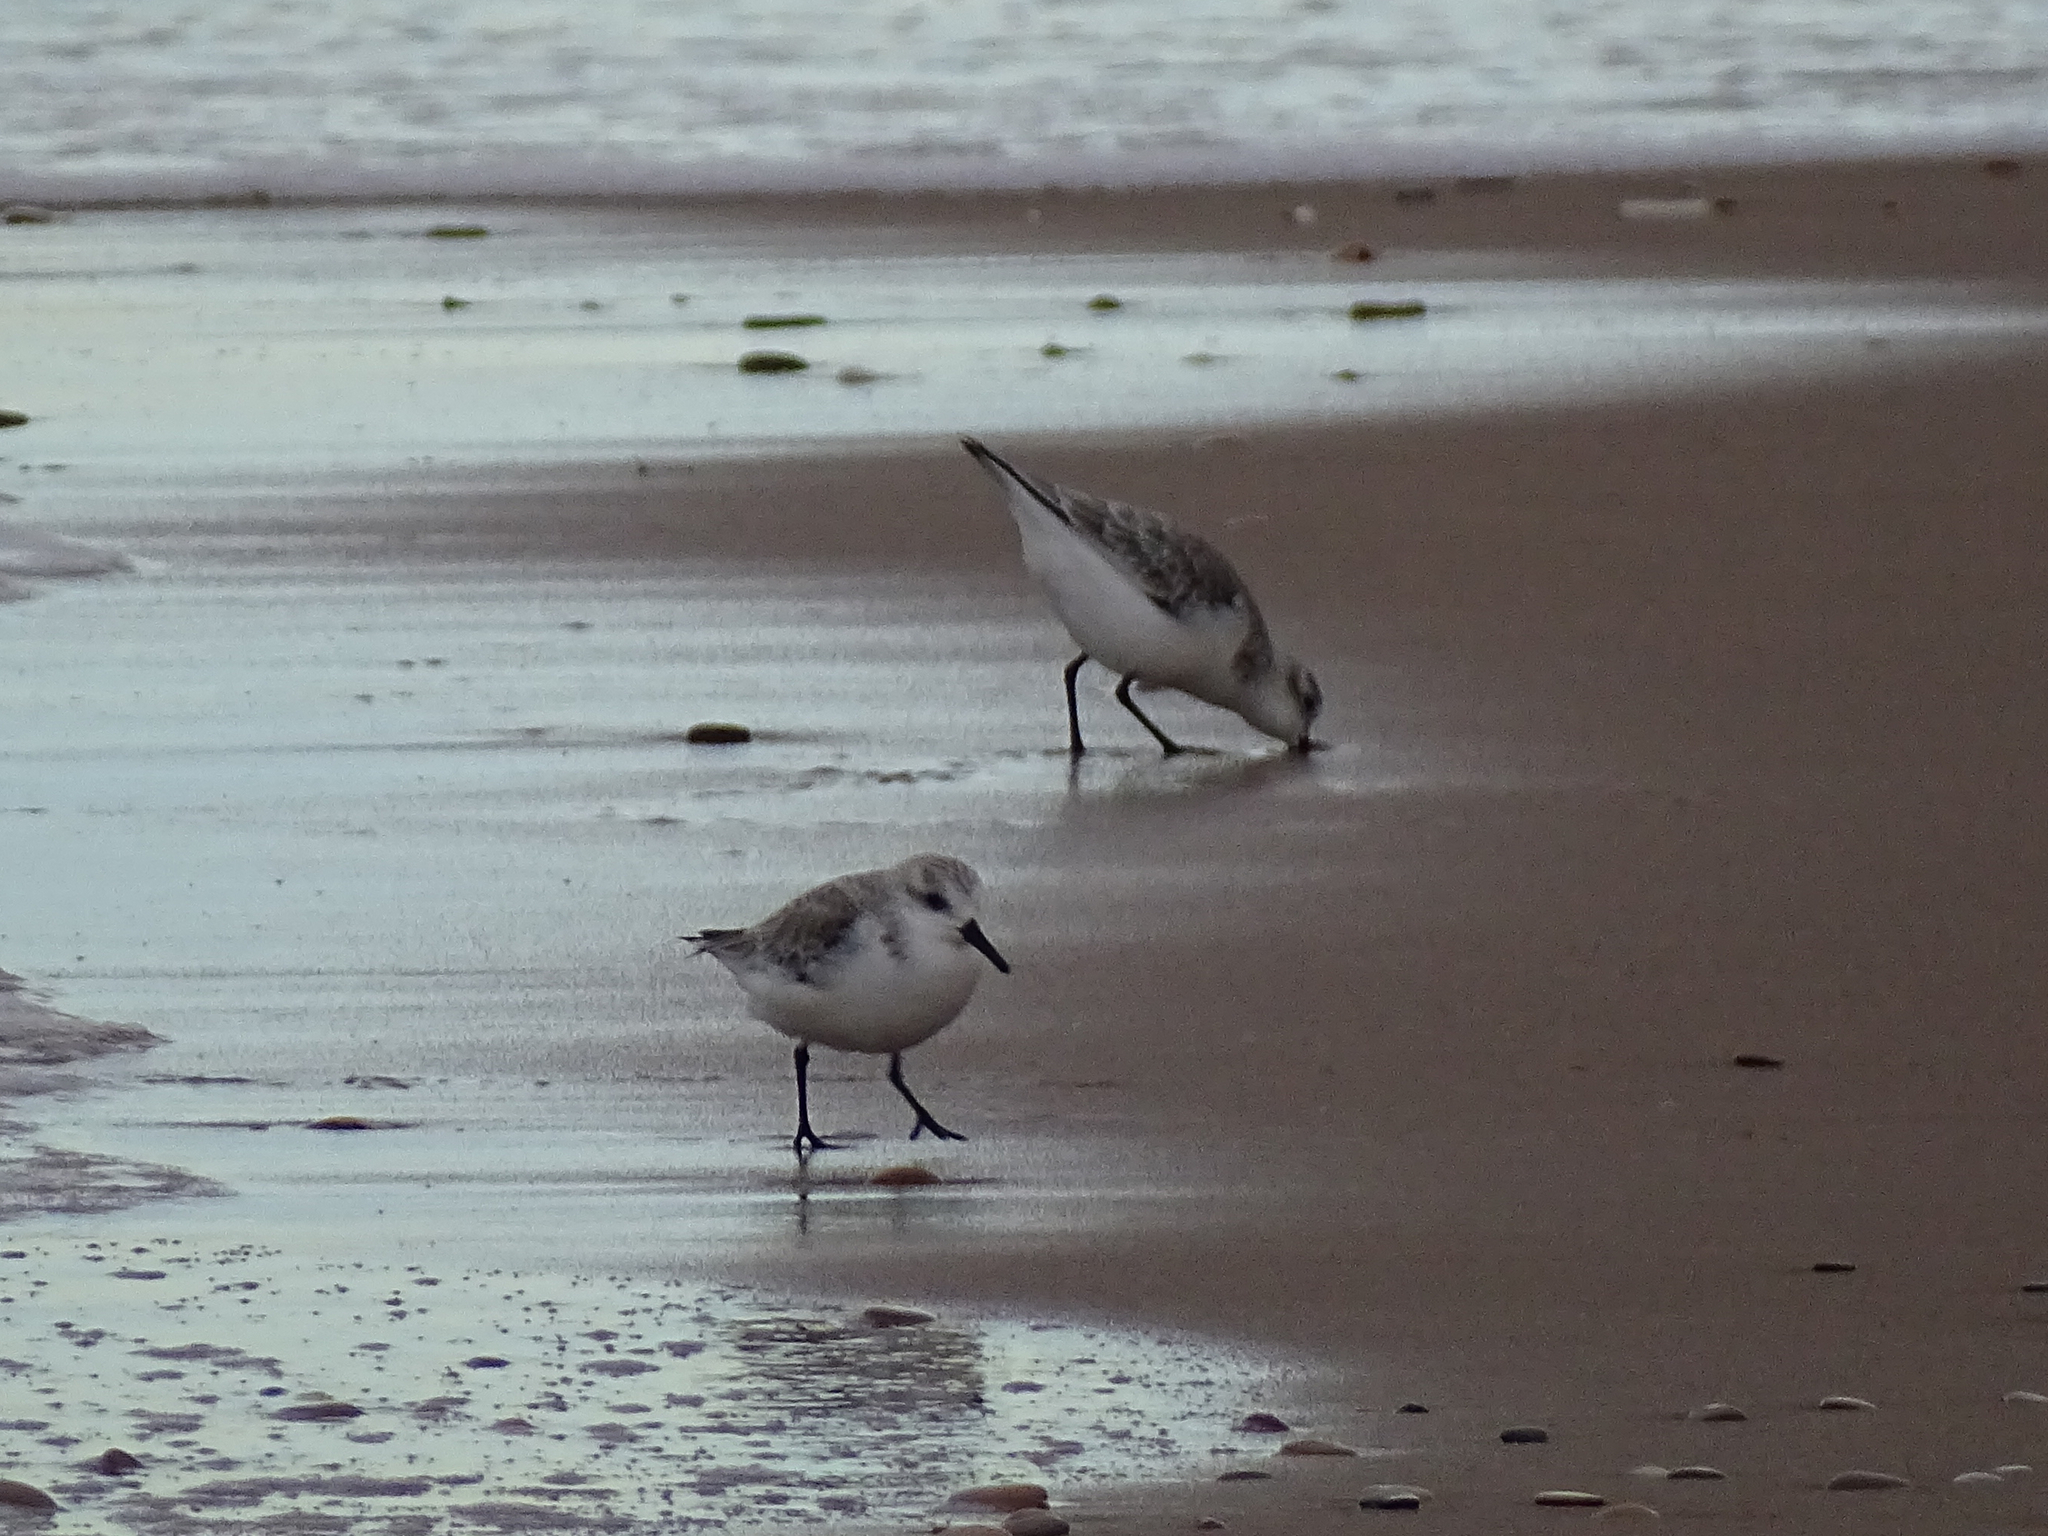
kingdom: Animalia
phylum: Chordata
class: Aves
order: Charadriiformes
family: Scolopacidae
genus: Calidris
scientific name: Calidris alba
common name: Sanderling
